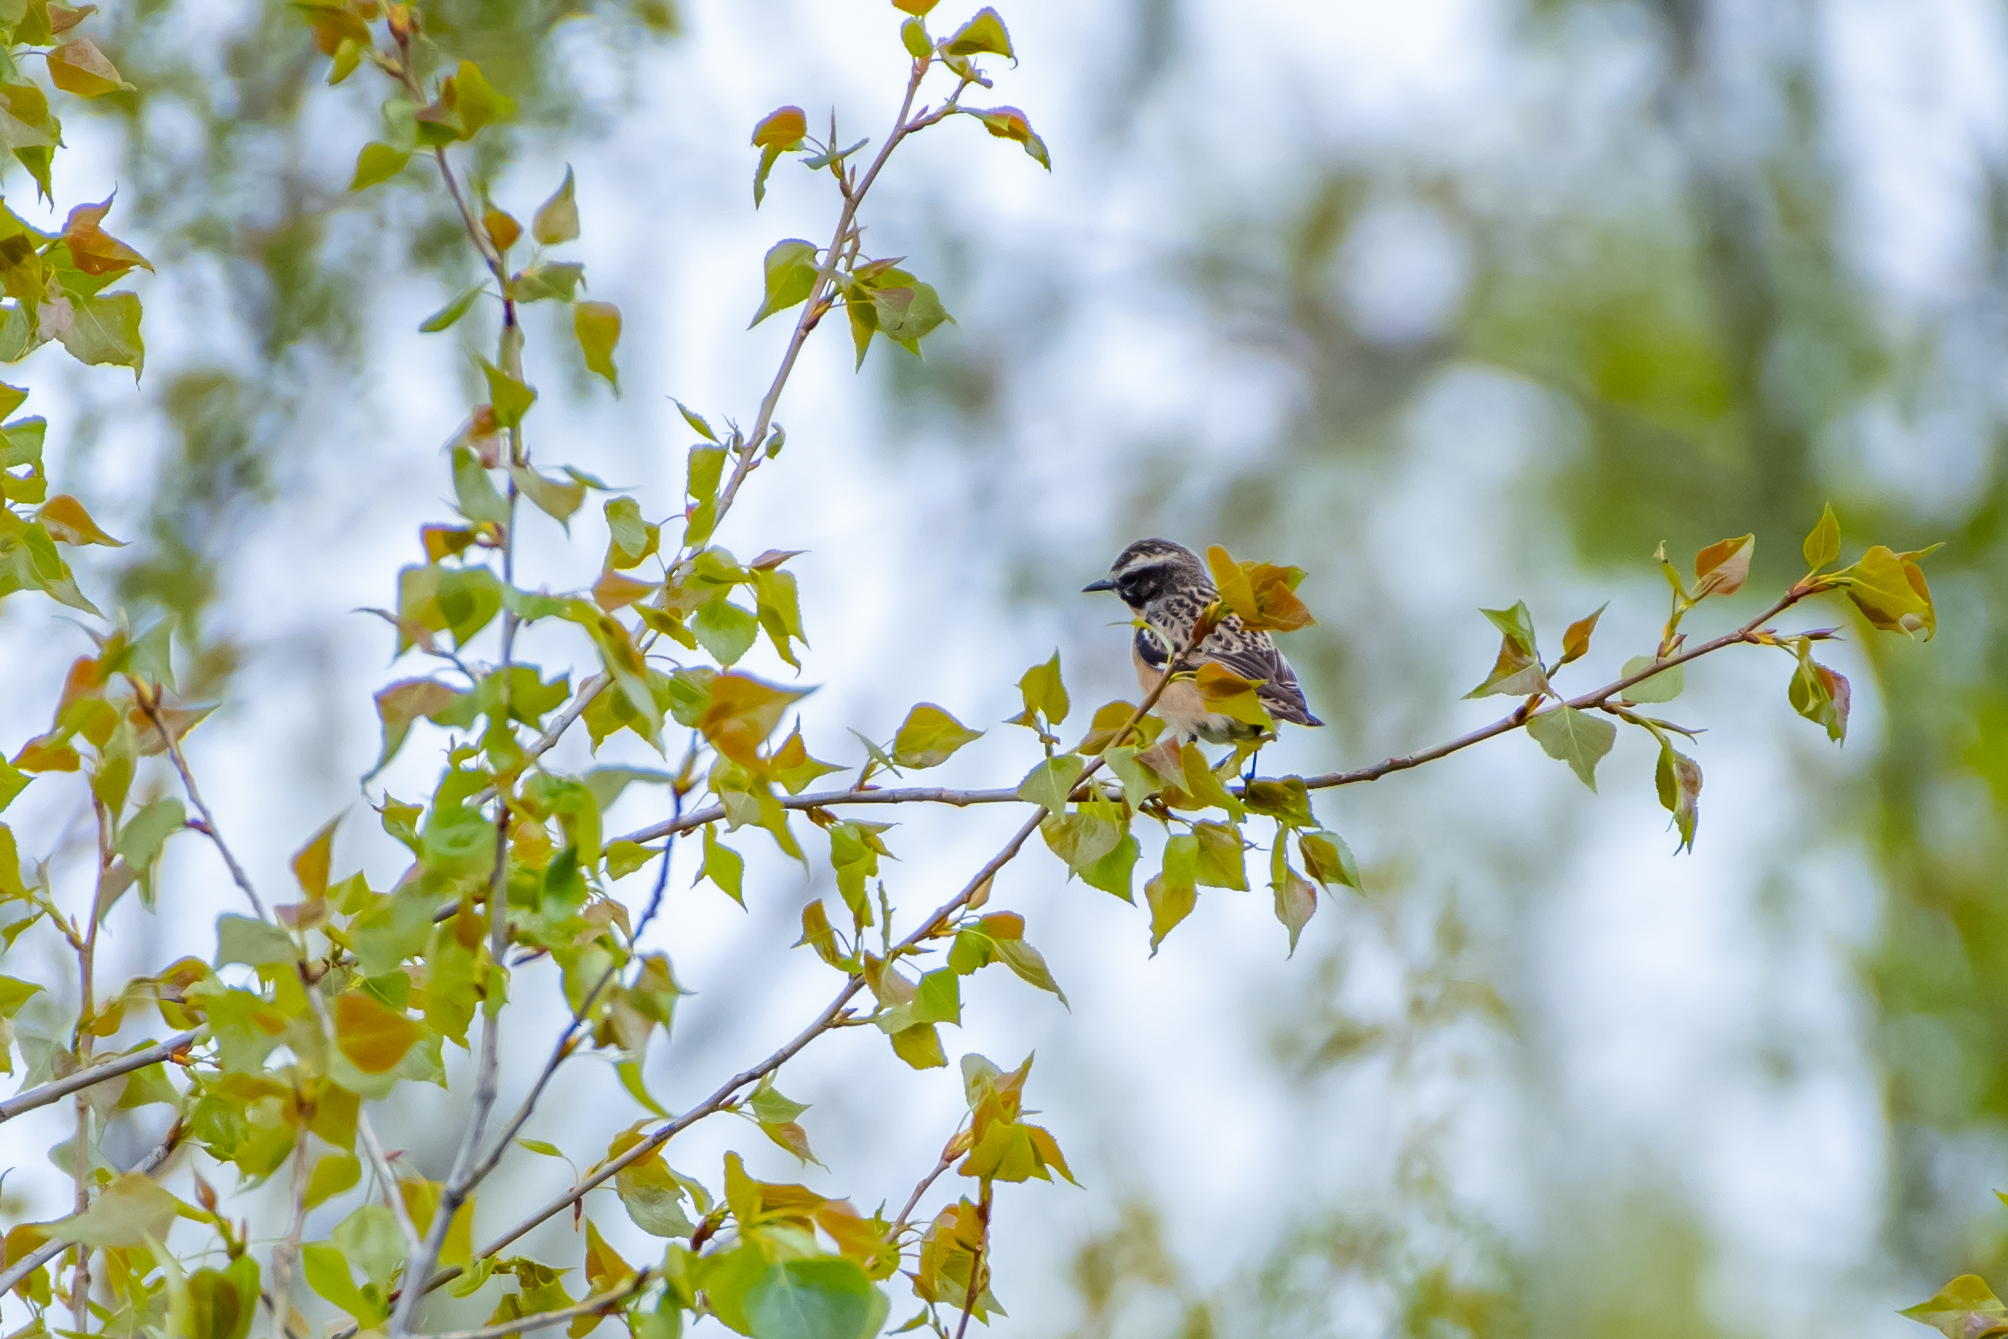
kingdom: Animalia
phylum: Chordata
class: Aves
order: Passeriformes
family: Muscicapidae
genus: Saxicola
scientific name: Saxicola rubetra
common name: Whinchat
